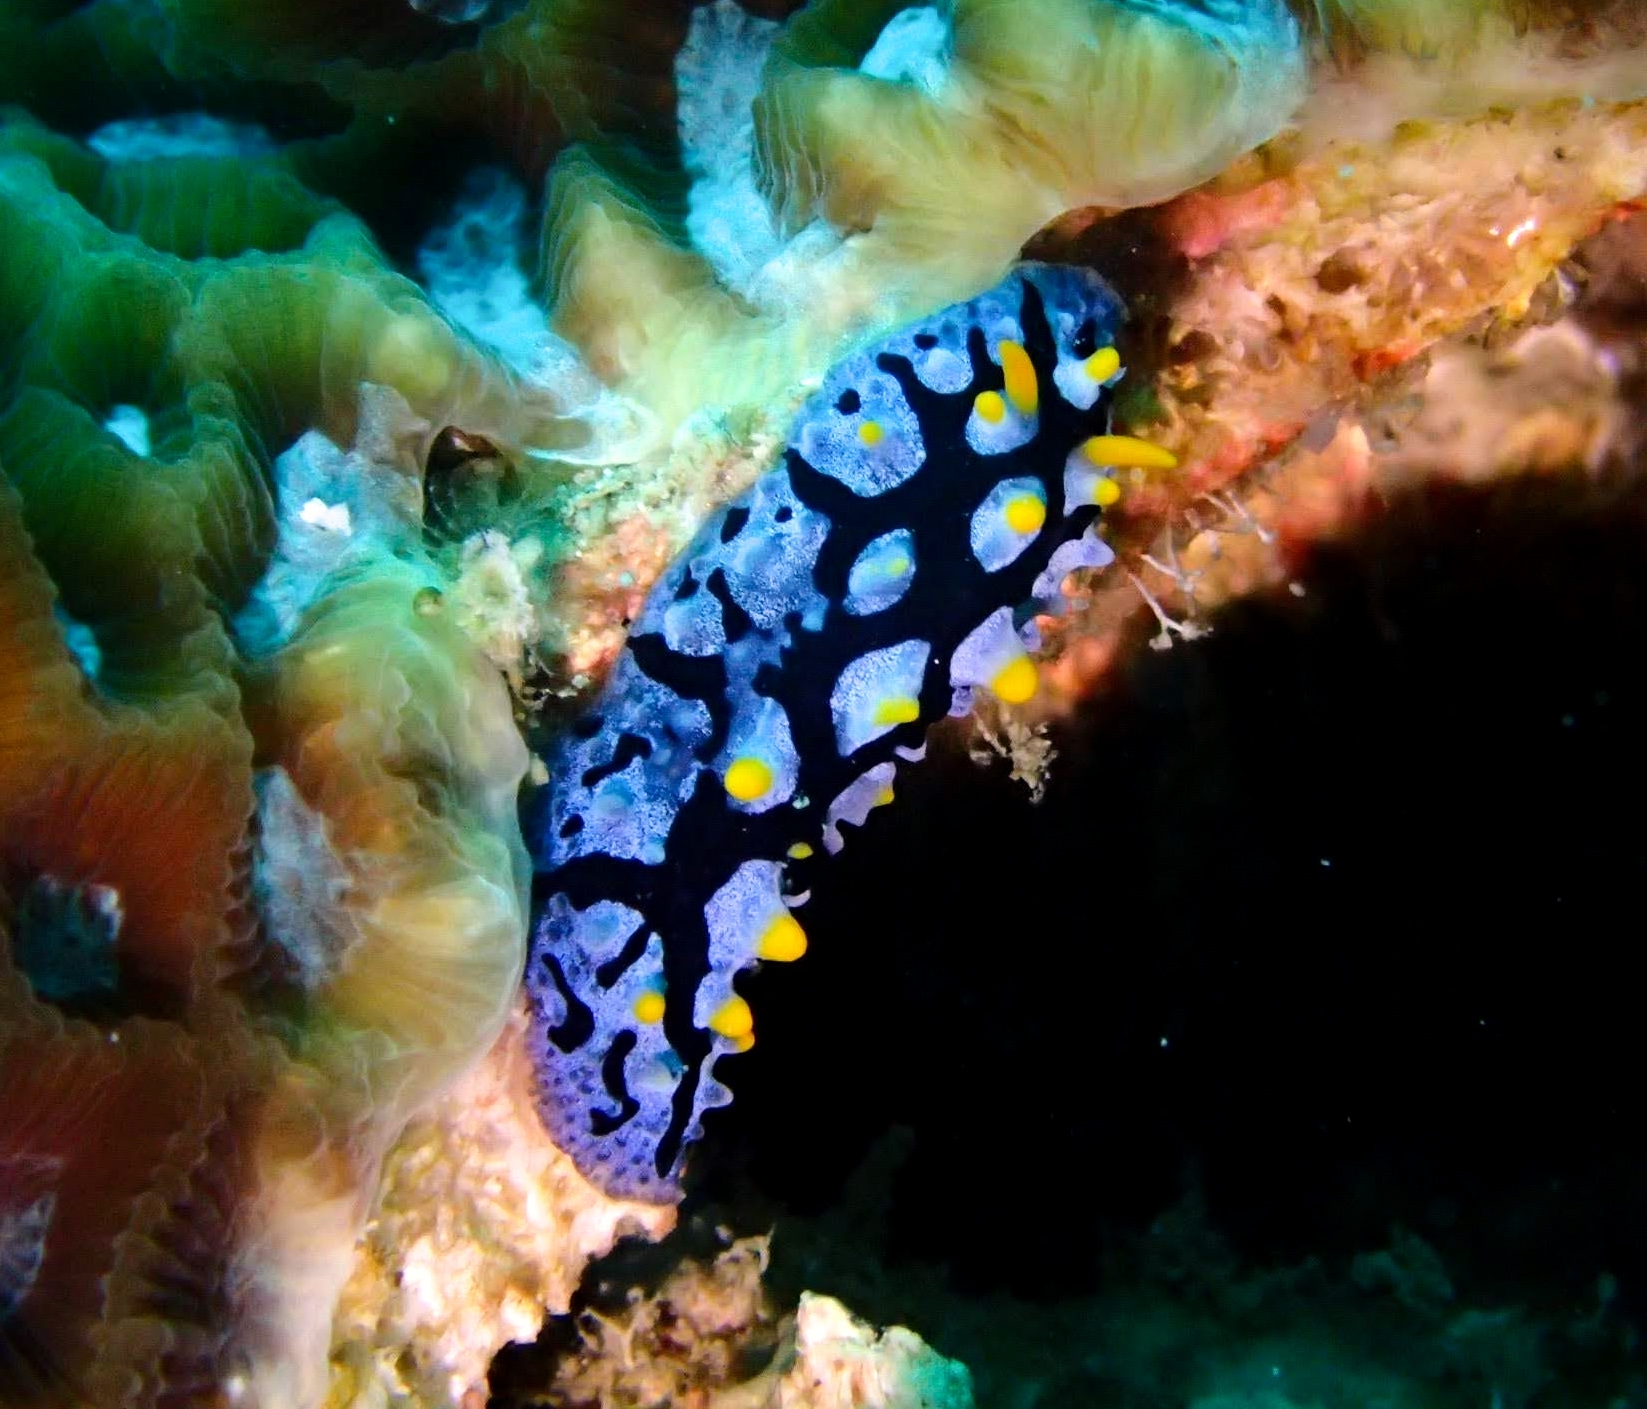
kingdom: Animalia
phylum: Mollusca
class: Gastropoda
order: Nudibranchia
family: Phyllidiidae
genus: Phyllidia
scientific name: Phyllidia picta
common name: Black-rayed phyllidia
